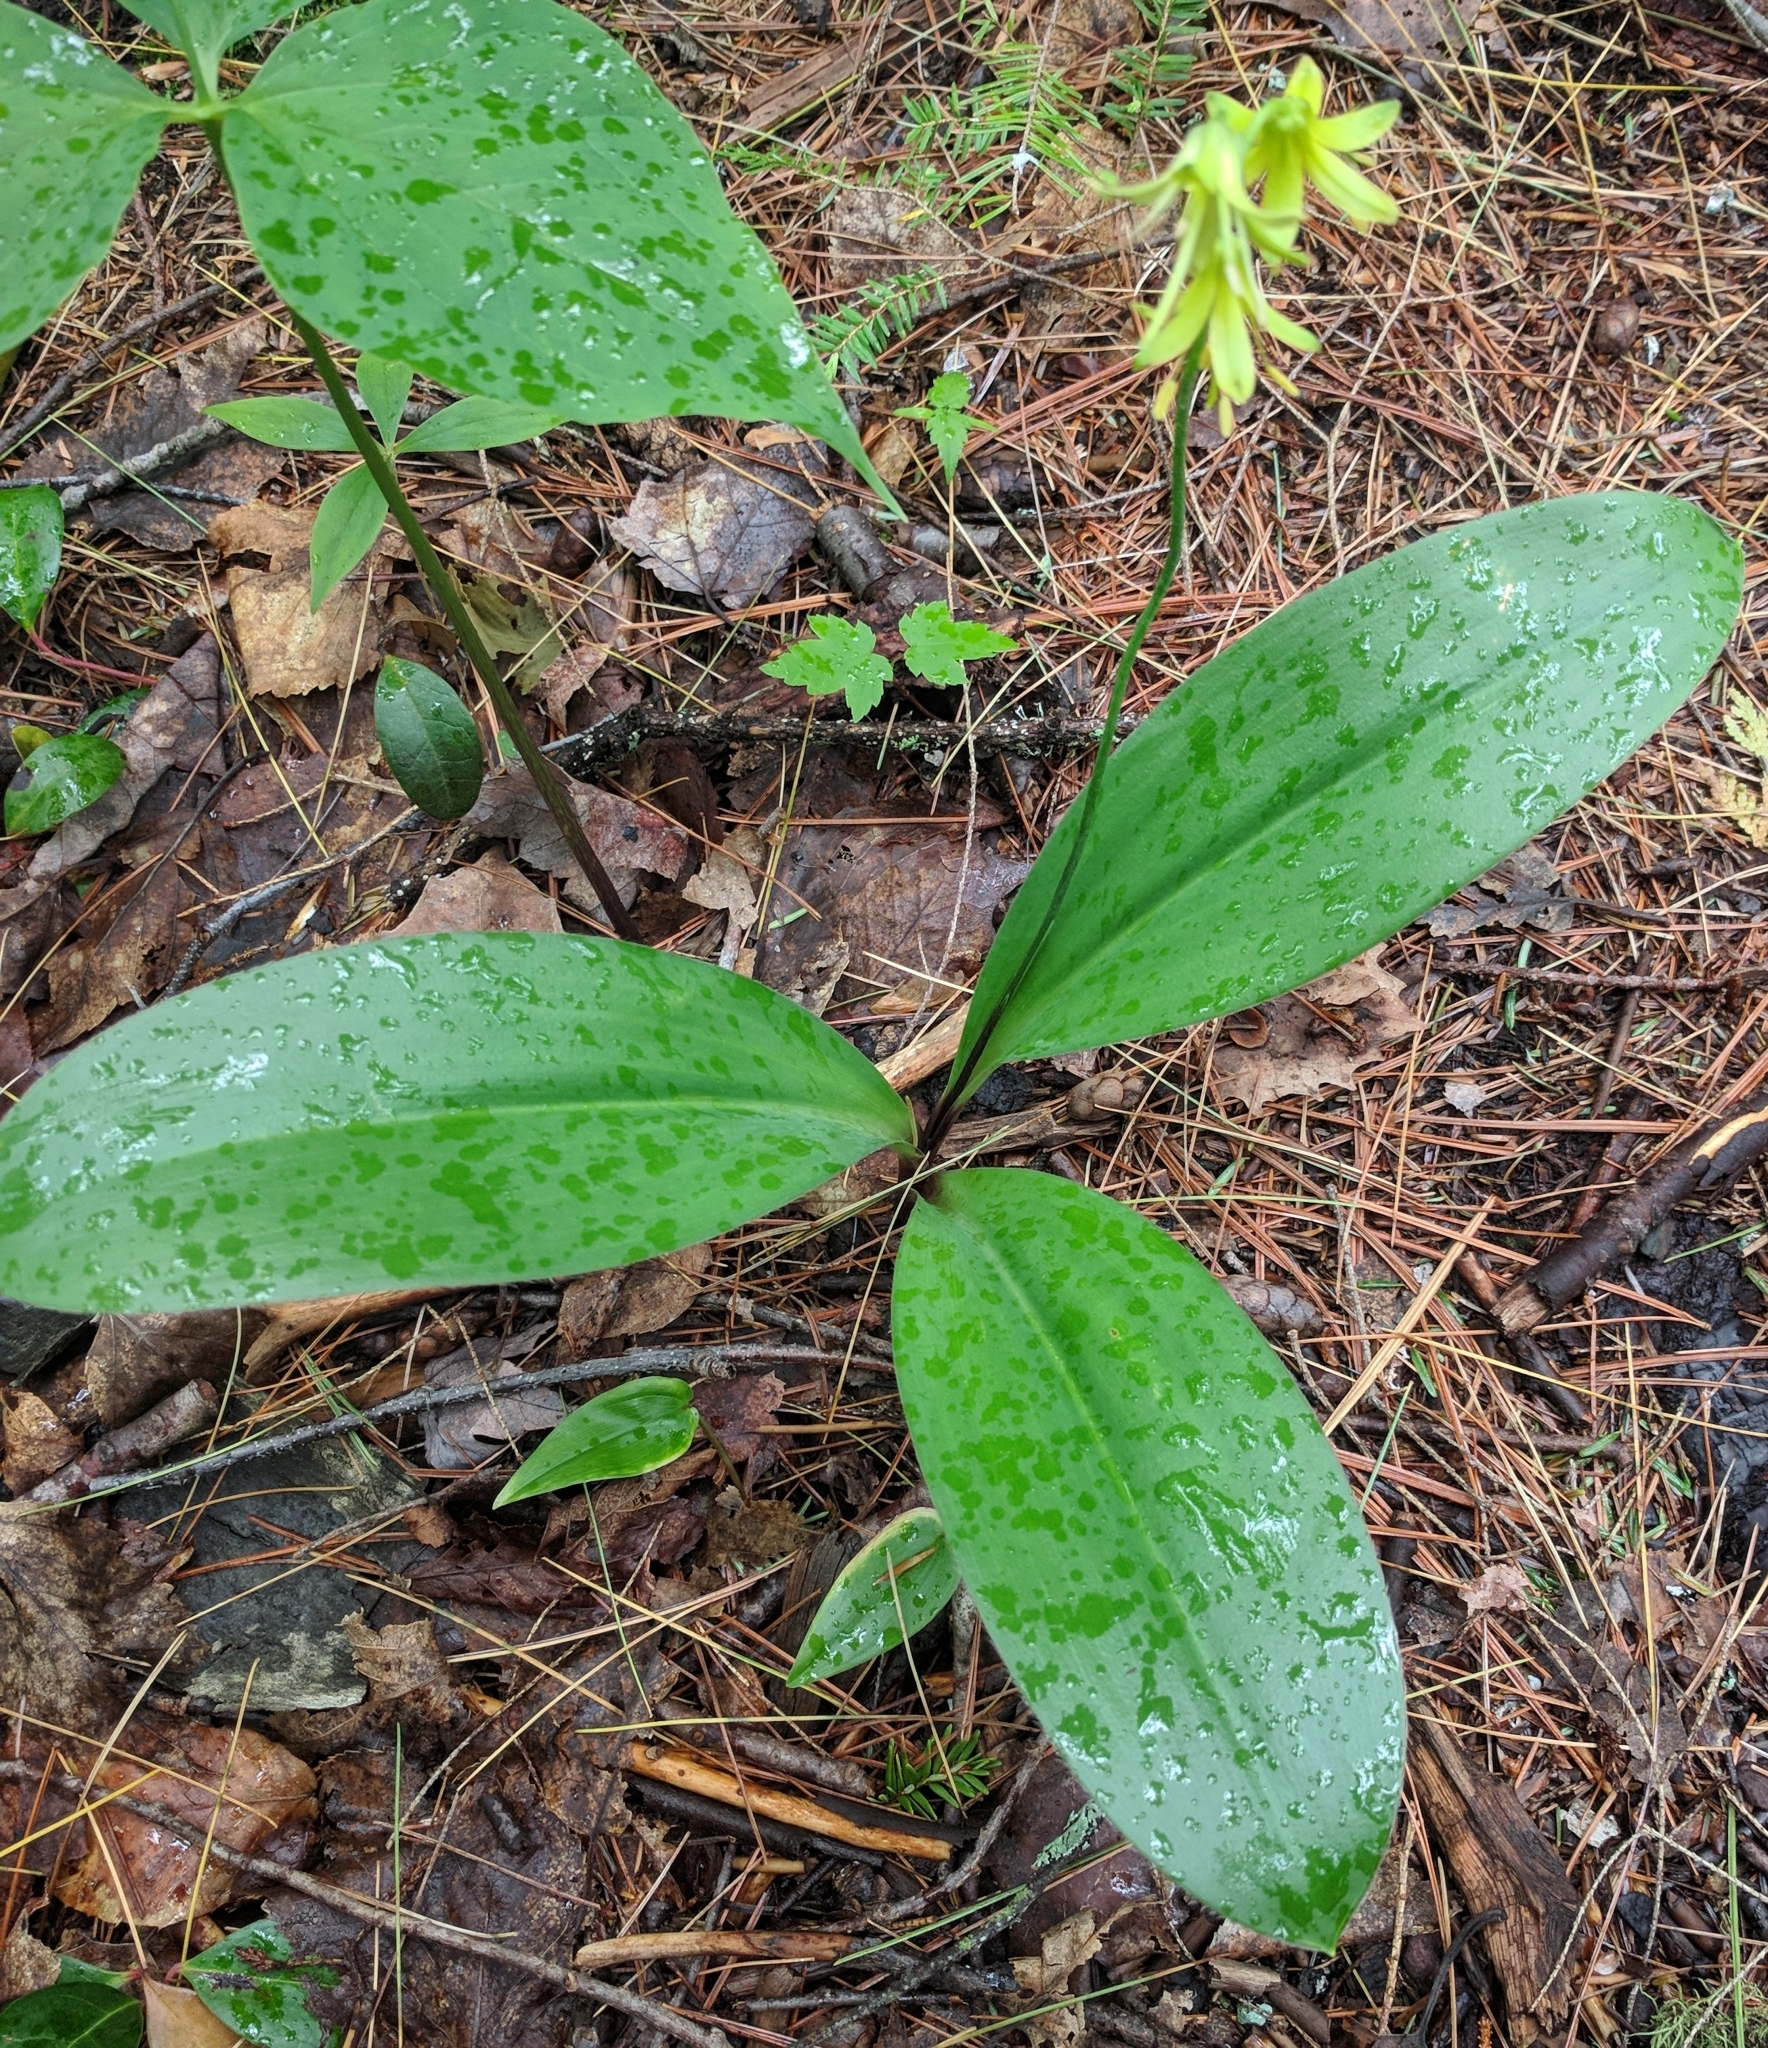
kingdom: Plantae
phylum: Tracheophyta
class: Liliopsida
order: Liliales
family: Liliaceae
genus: Clintonia
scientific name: Clintonia borealis
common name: Yellow clintonia
